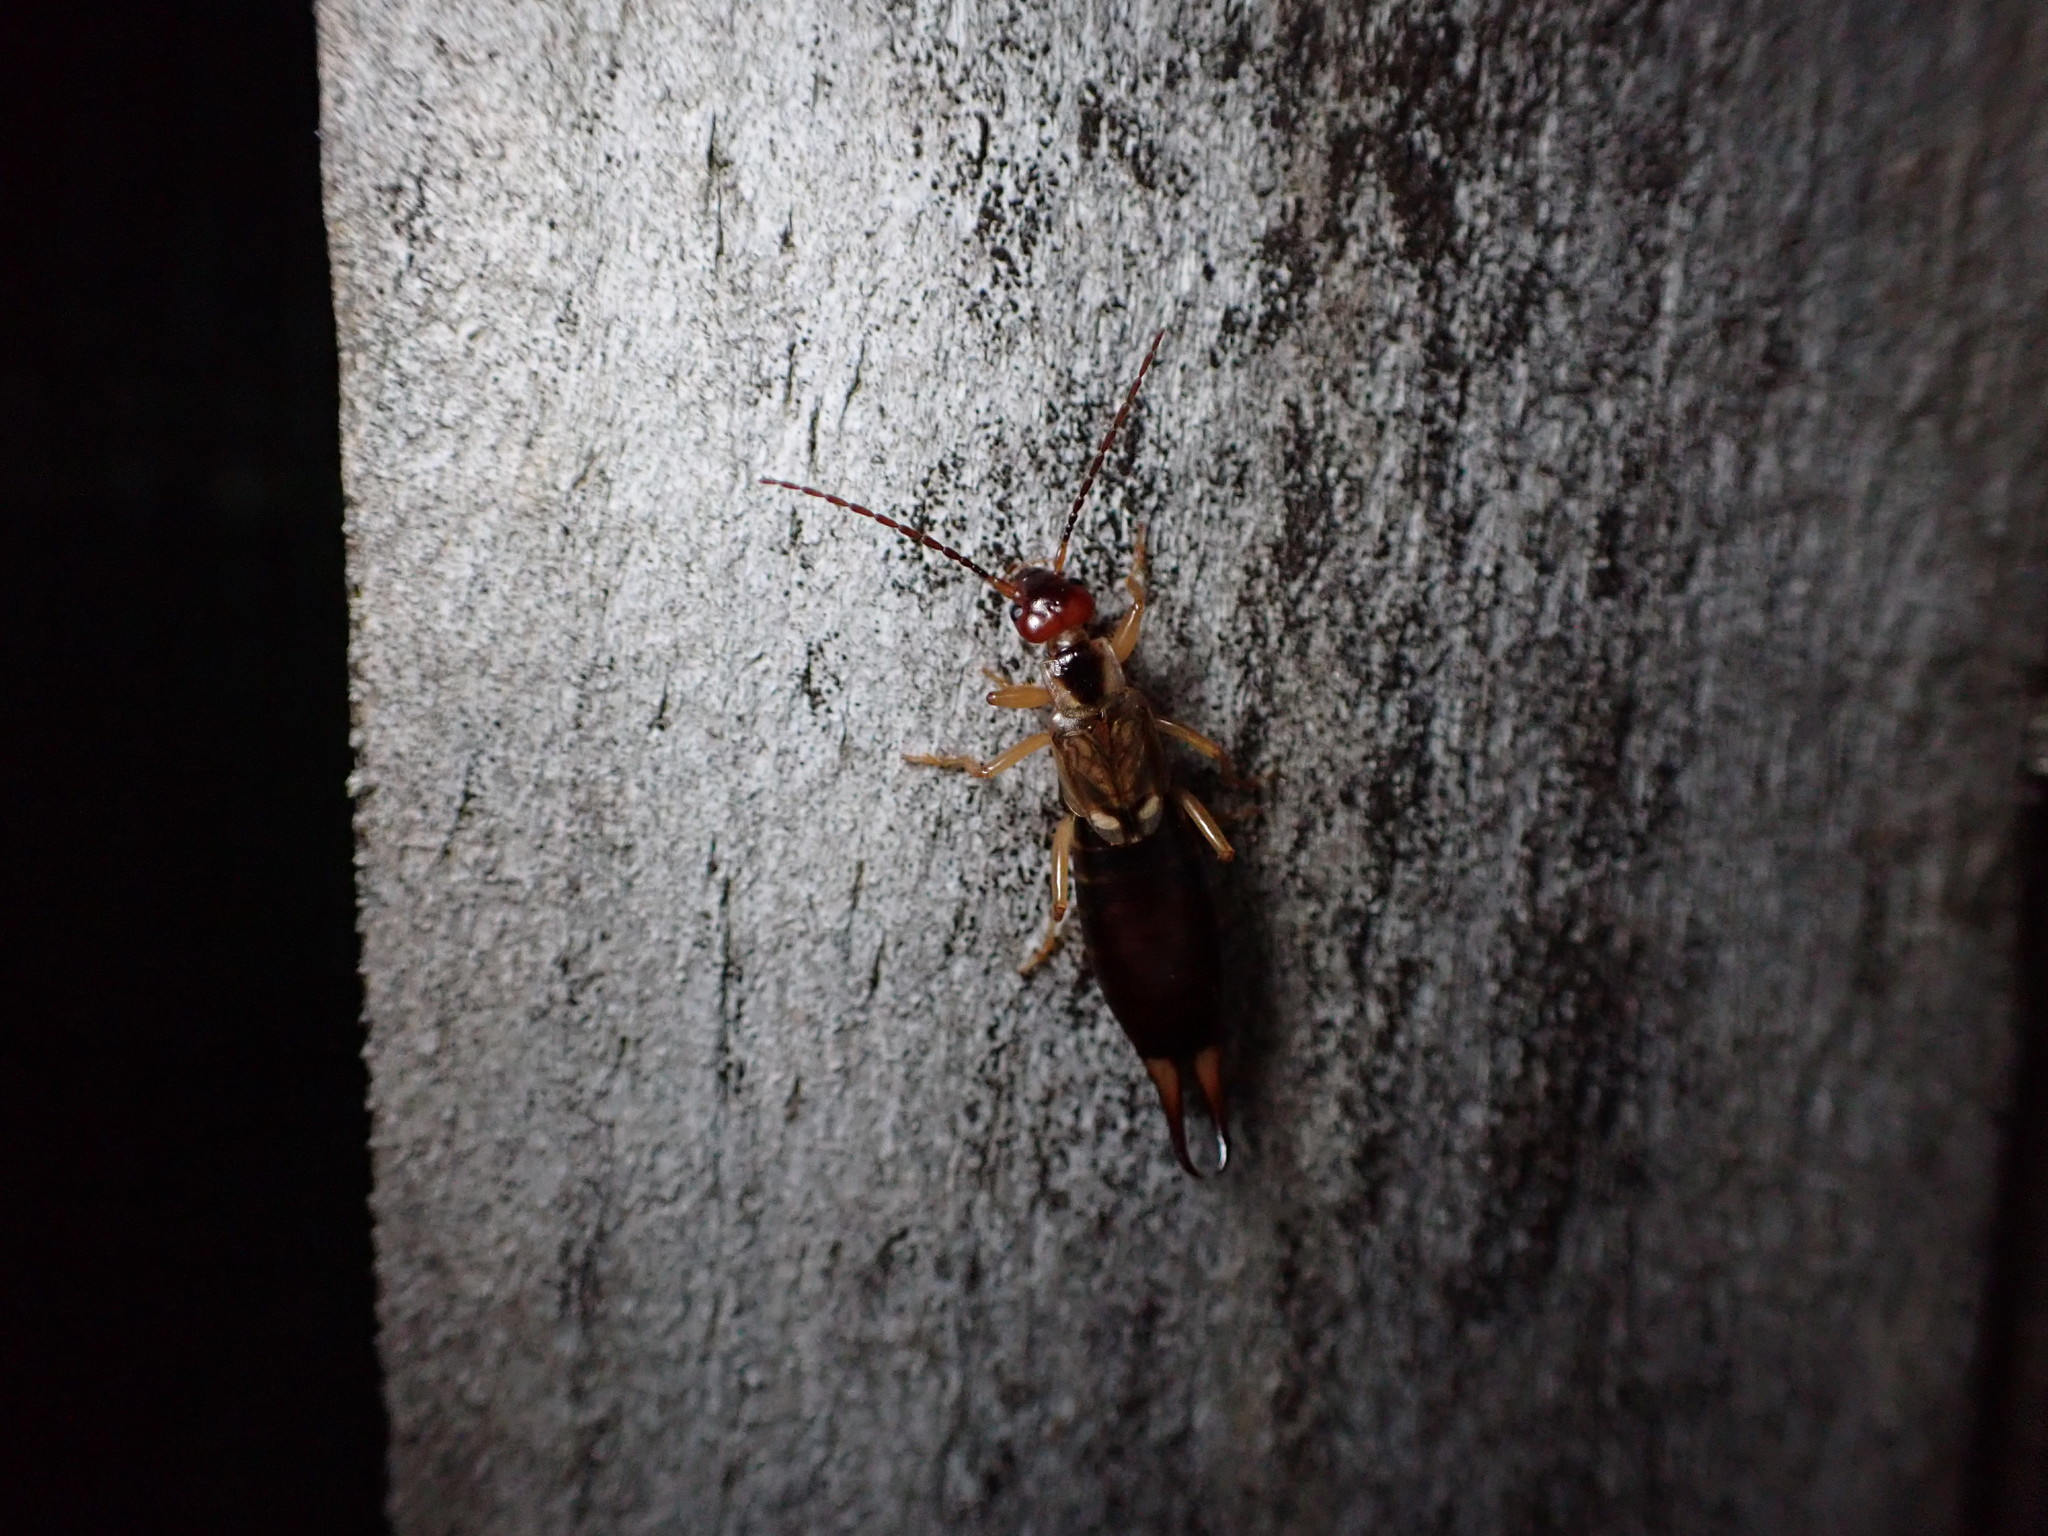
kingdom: Animalia
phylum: Arthropoda
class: Insecta
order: Dermaptera
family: Forficulidae
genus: Forficula
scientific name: Forficula
